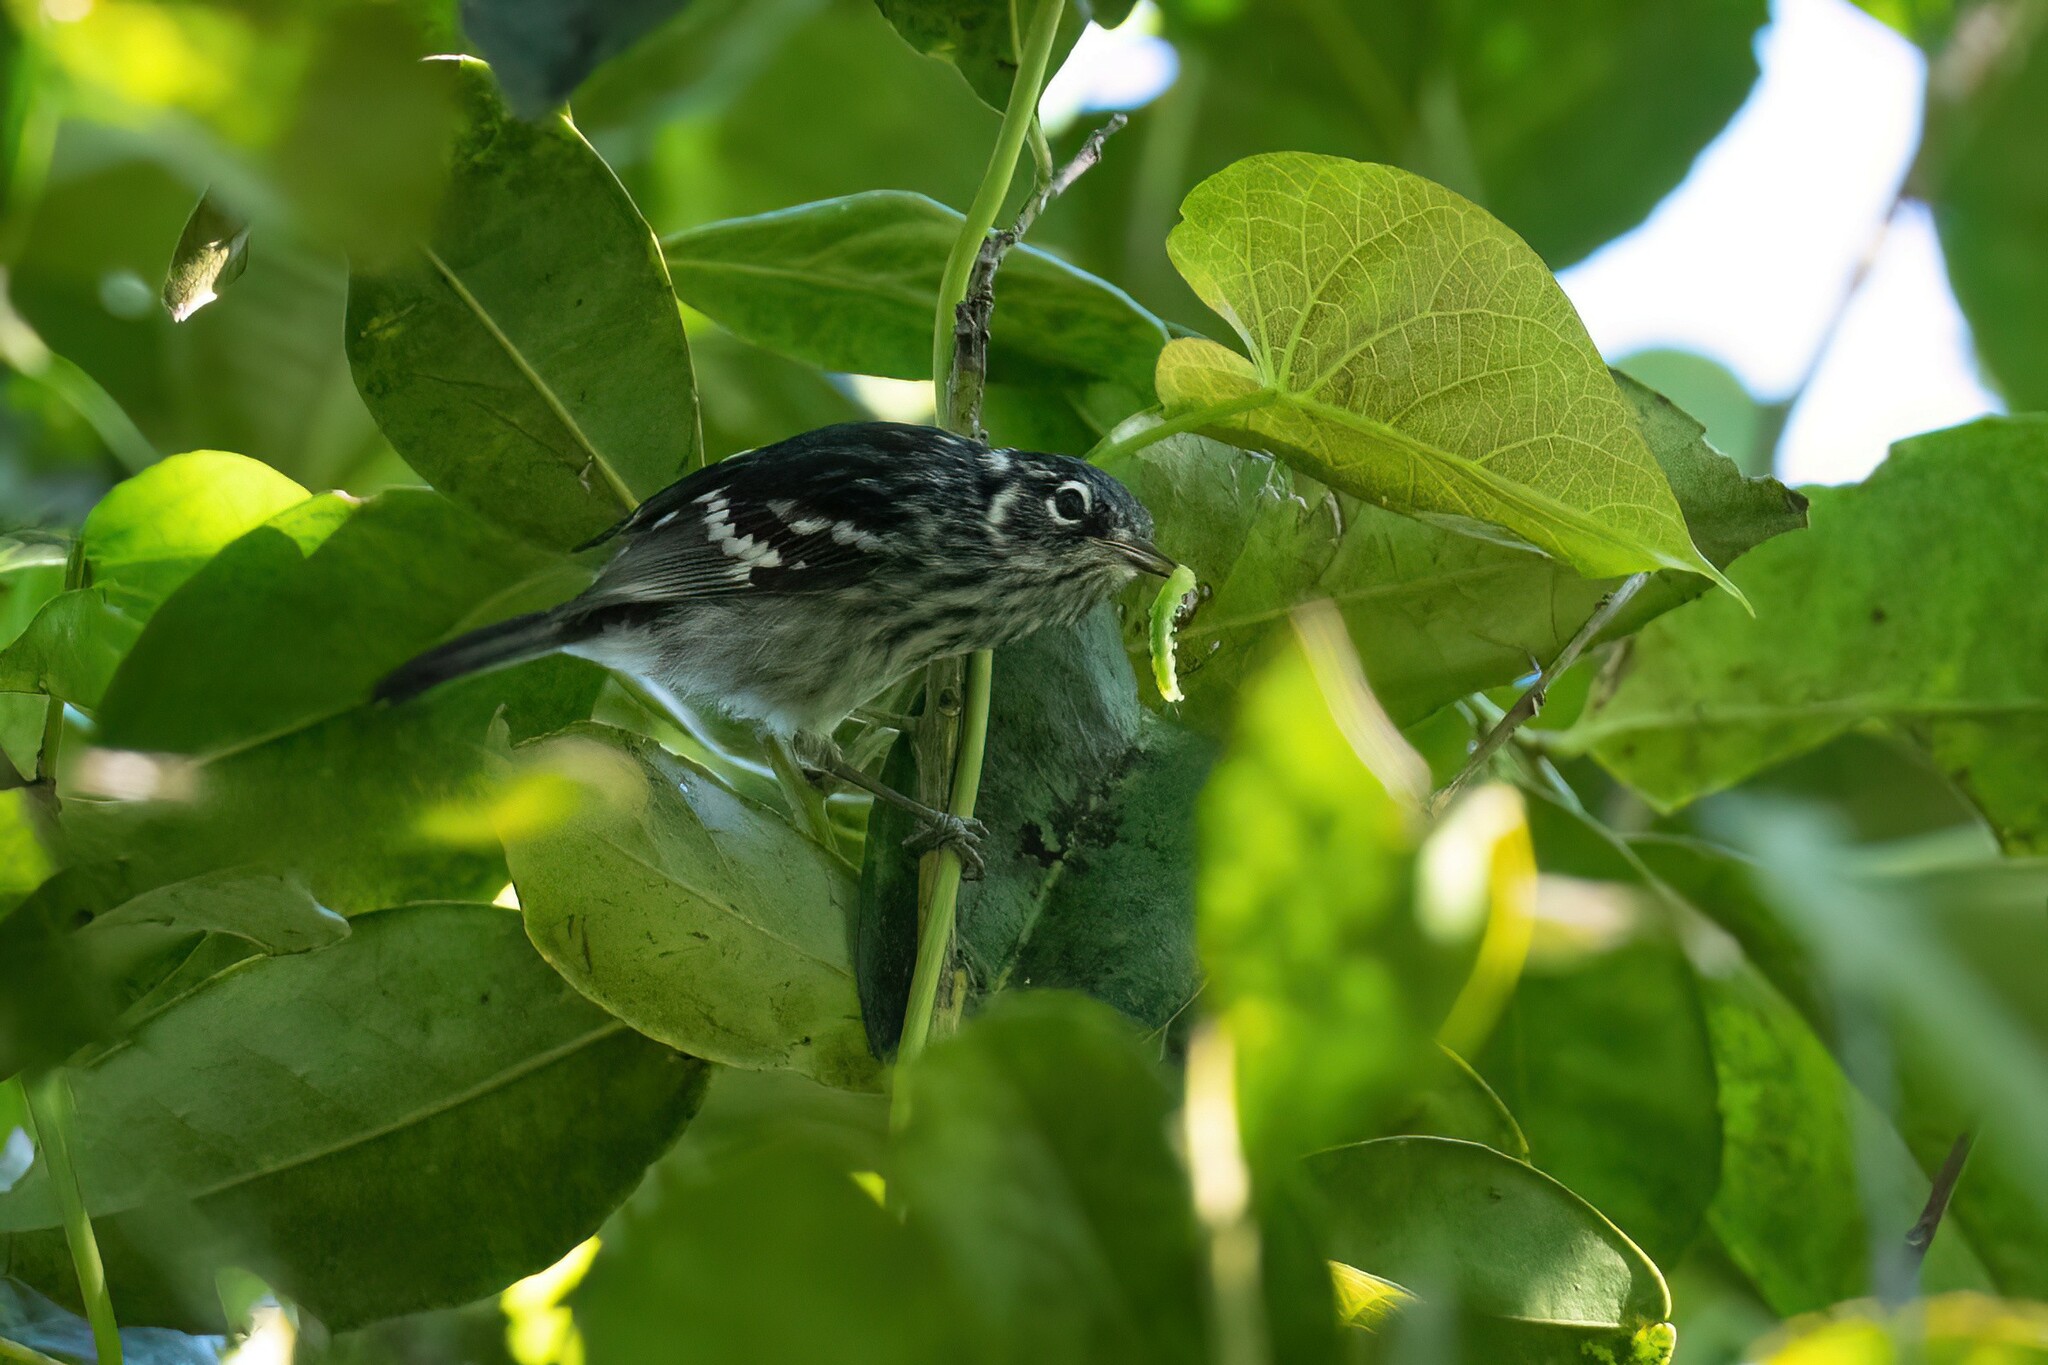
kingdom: Animalia
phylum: Chordata
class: Aves
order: Passeriformes
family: Parulidae
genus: Setophaga
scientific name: Setophaga angelae
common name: Elfin woods warbler
